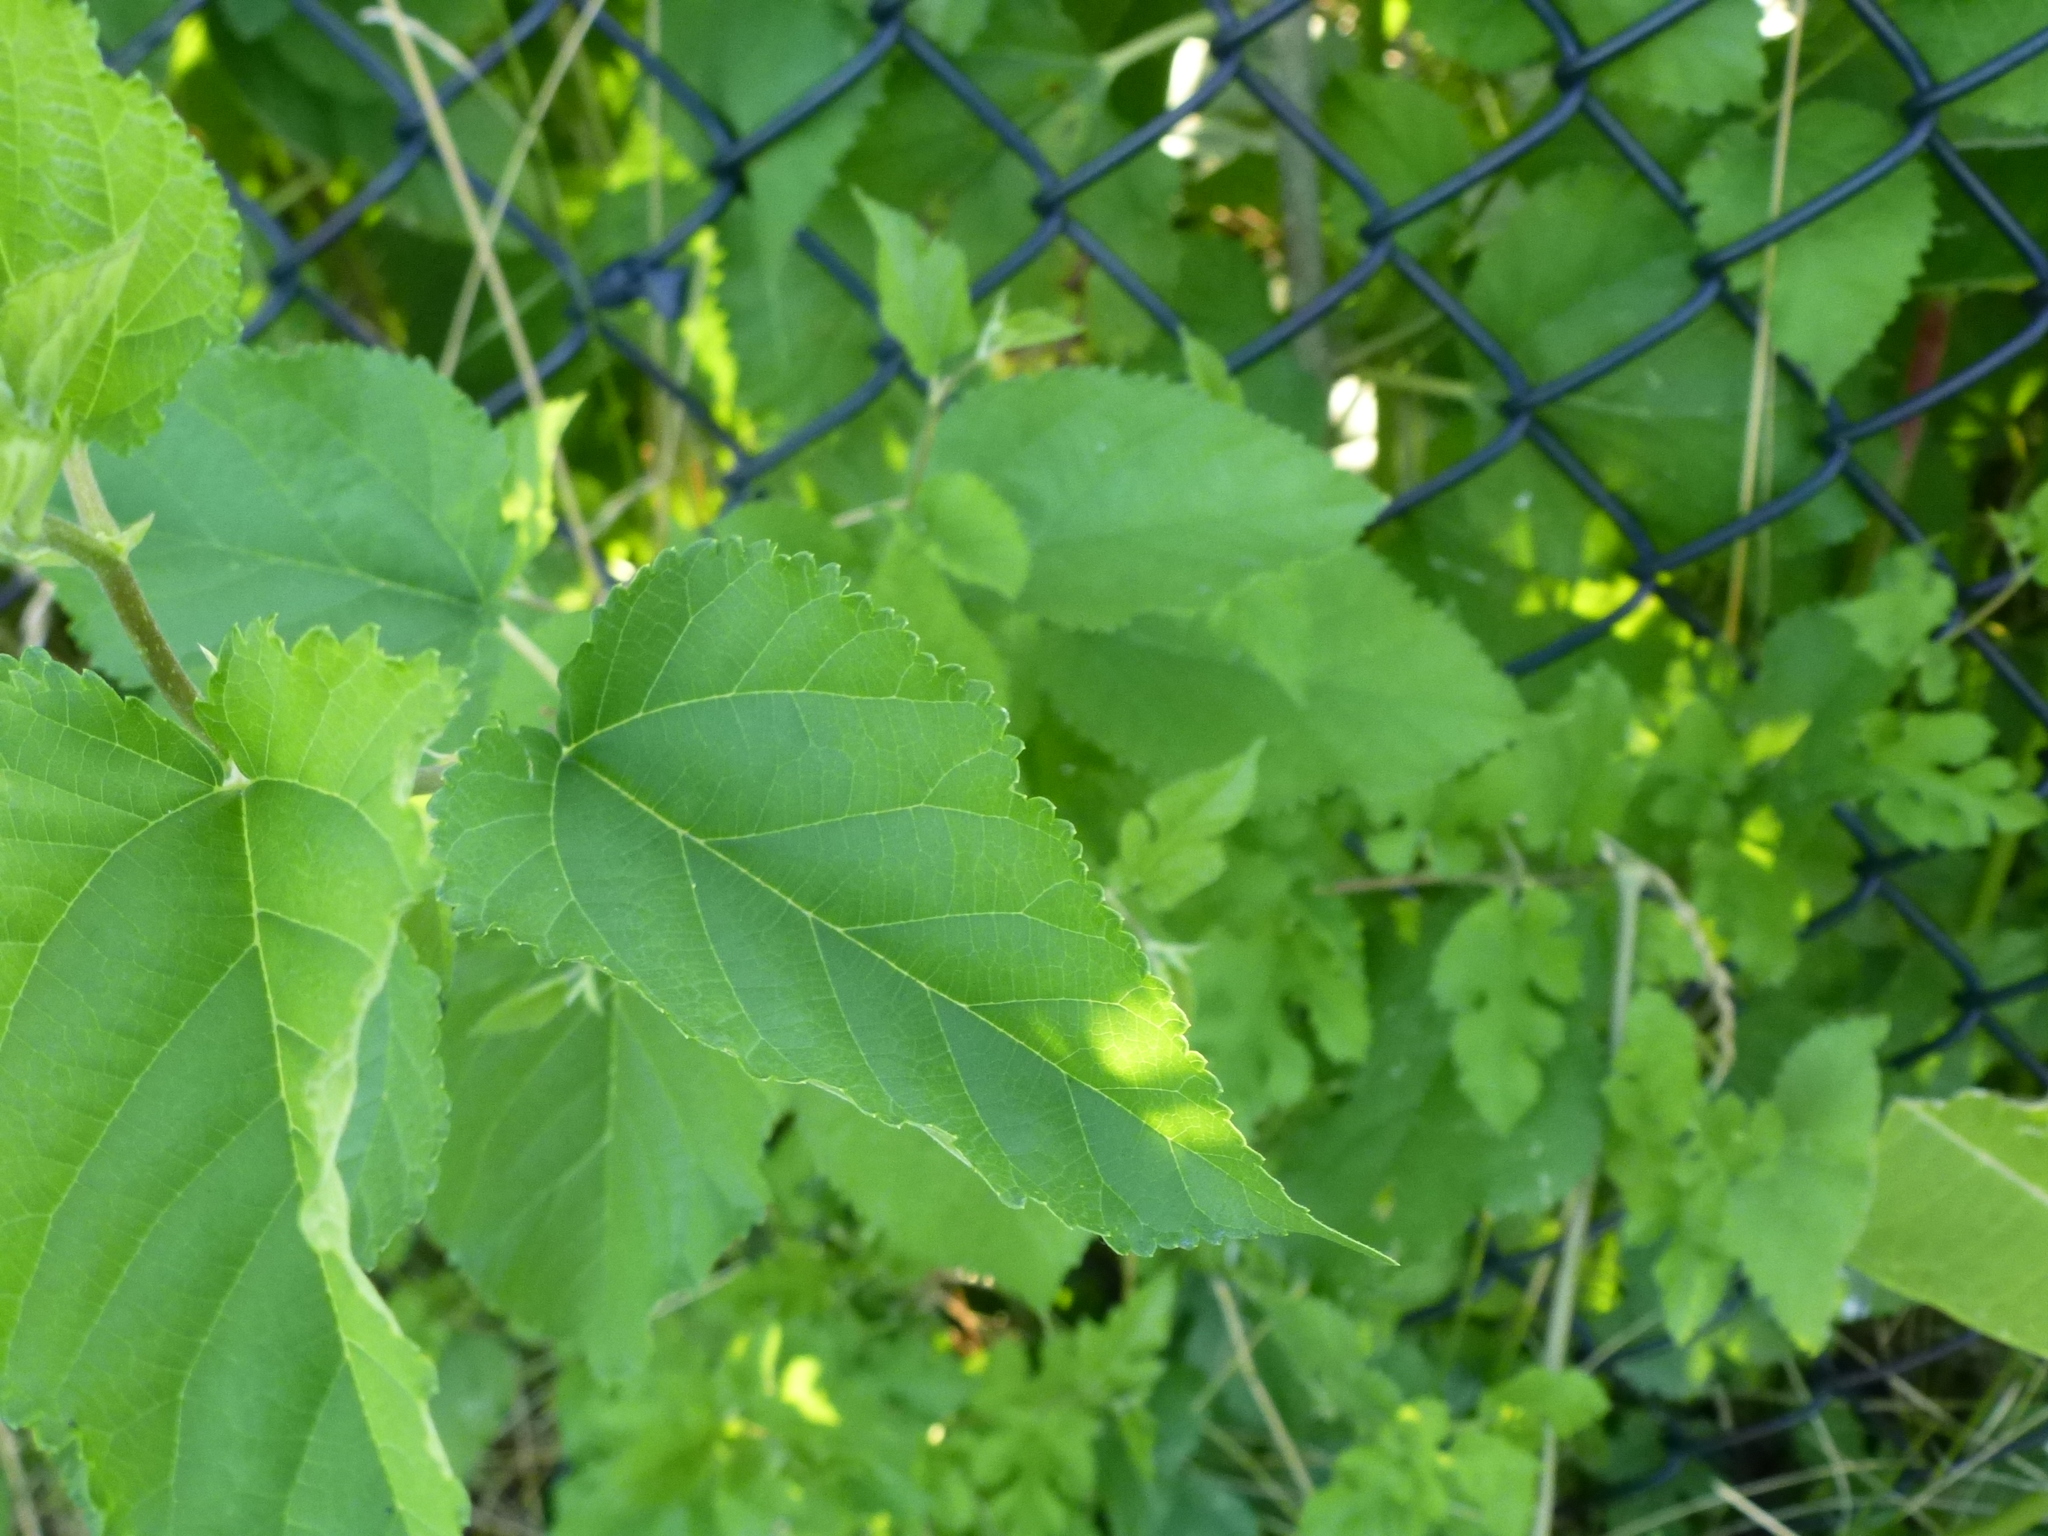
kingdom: Plantae
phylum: Tracheophyta
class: Magnoliopsida
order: Rosales
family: Moraceae
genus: Morus
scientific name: Morus alba
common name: White mulberry
